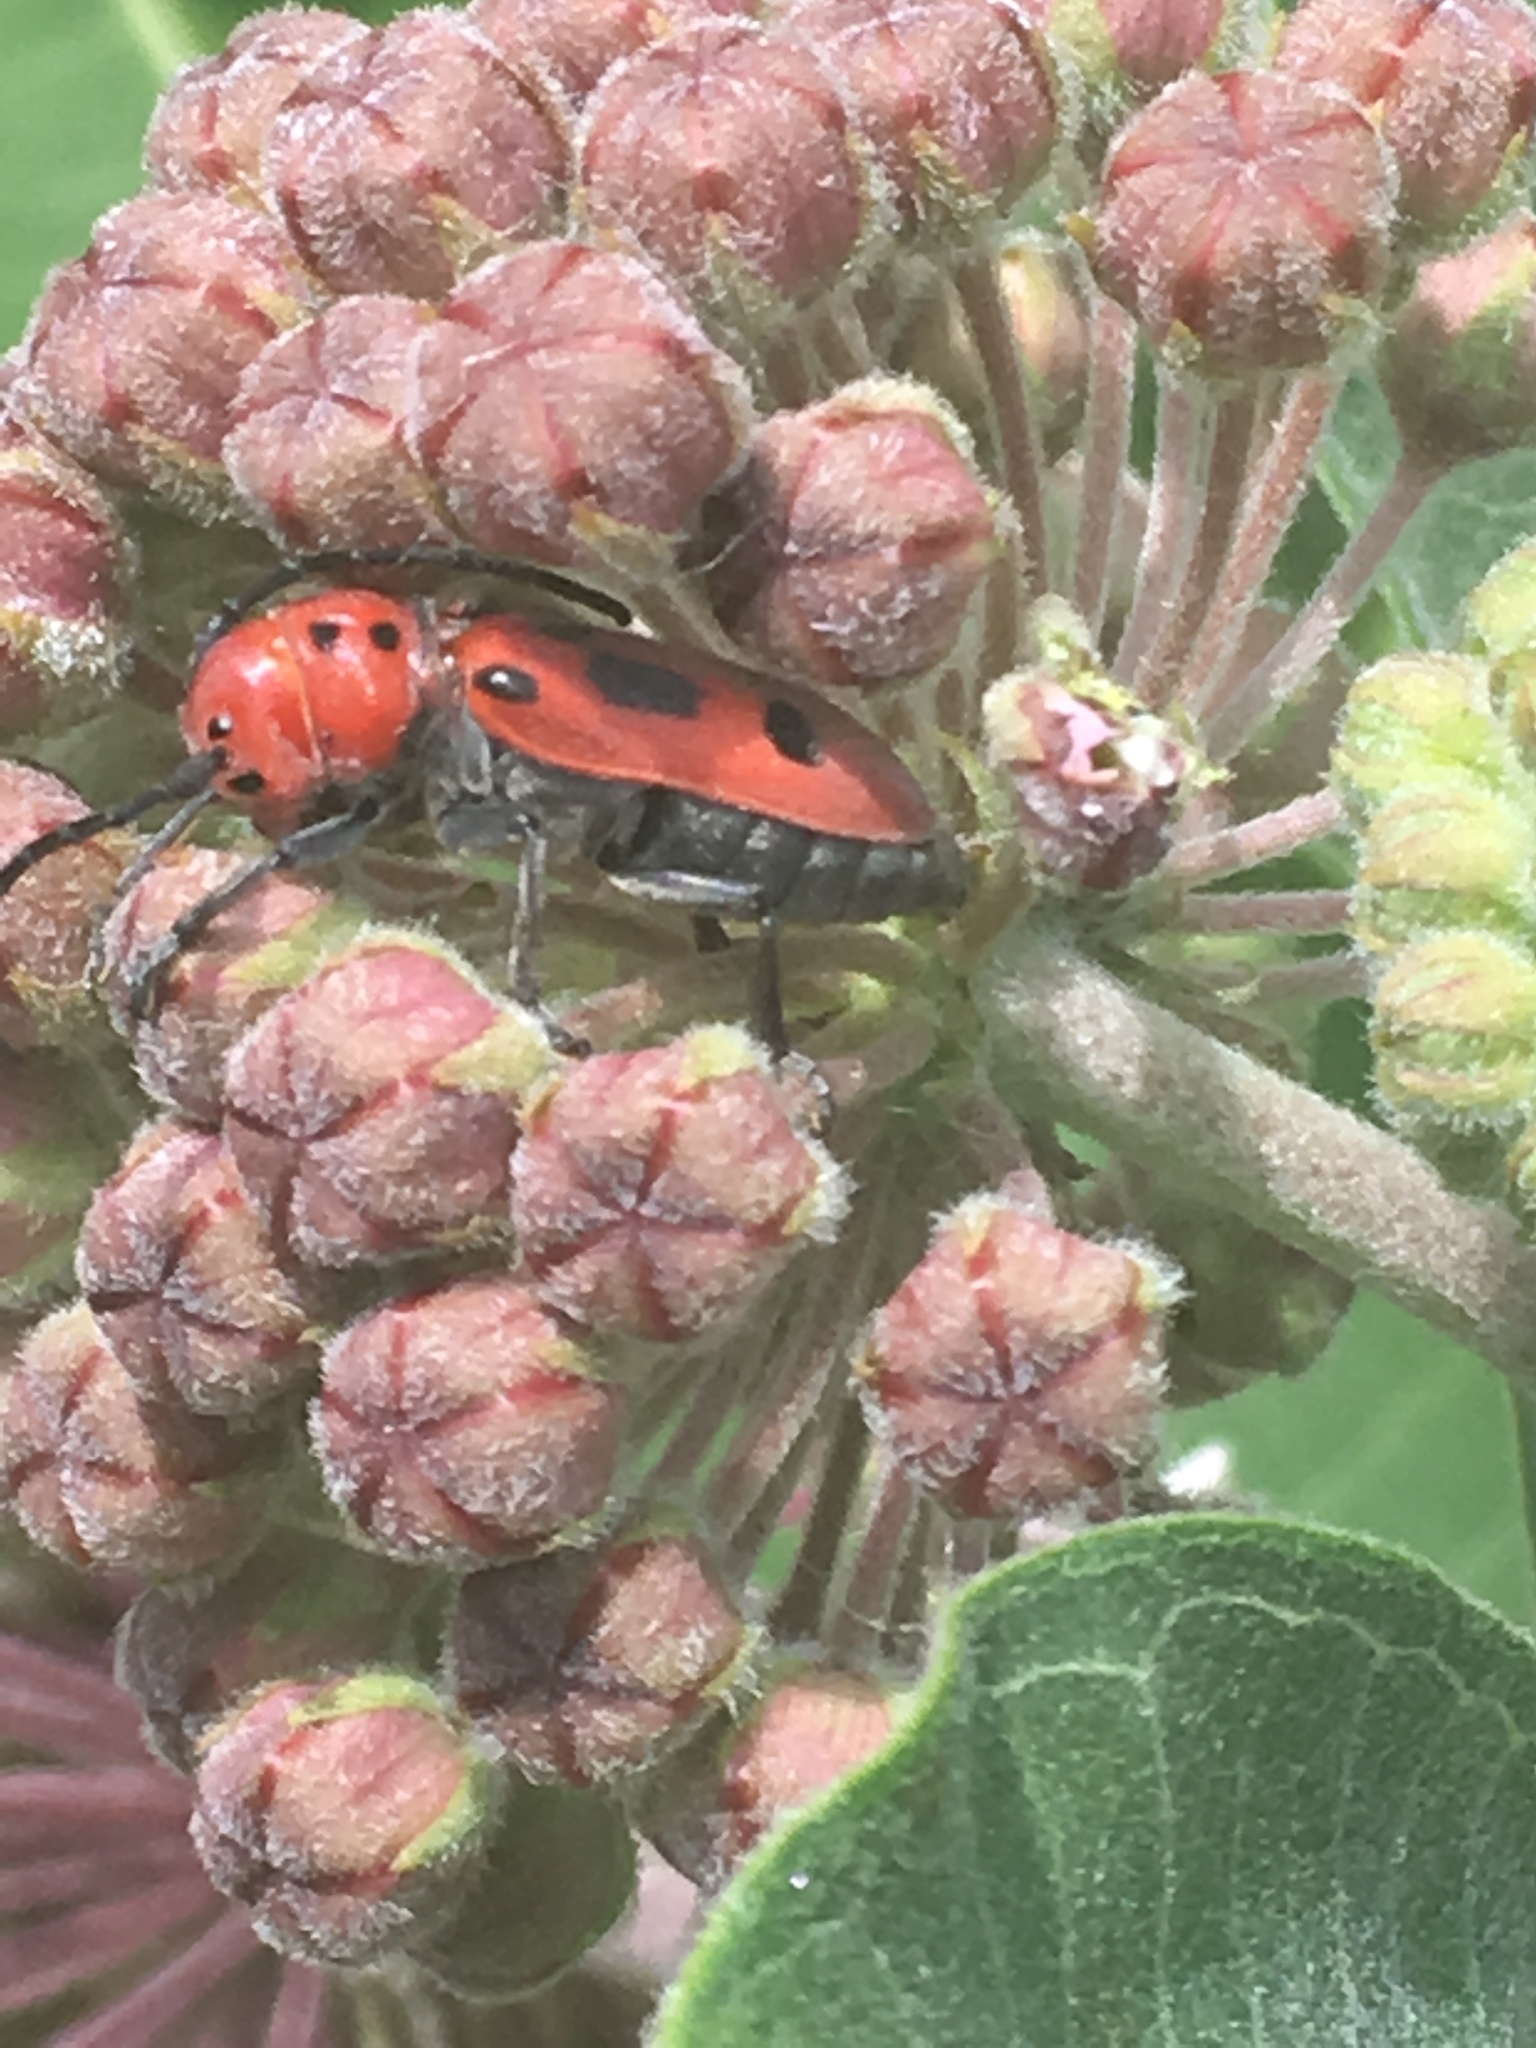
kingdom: Animalia
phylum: Arthropoda
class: Insecta
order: Coleoptera
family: Cerambycidae
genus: Tetraopes
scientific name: Tetraopes tetrophthalmus
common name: Red milkweed beetle
